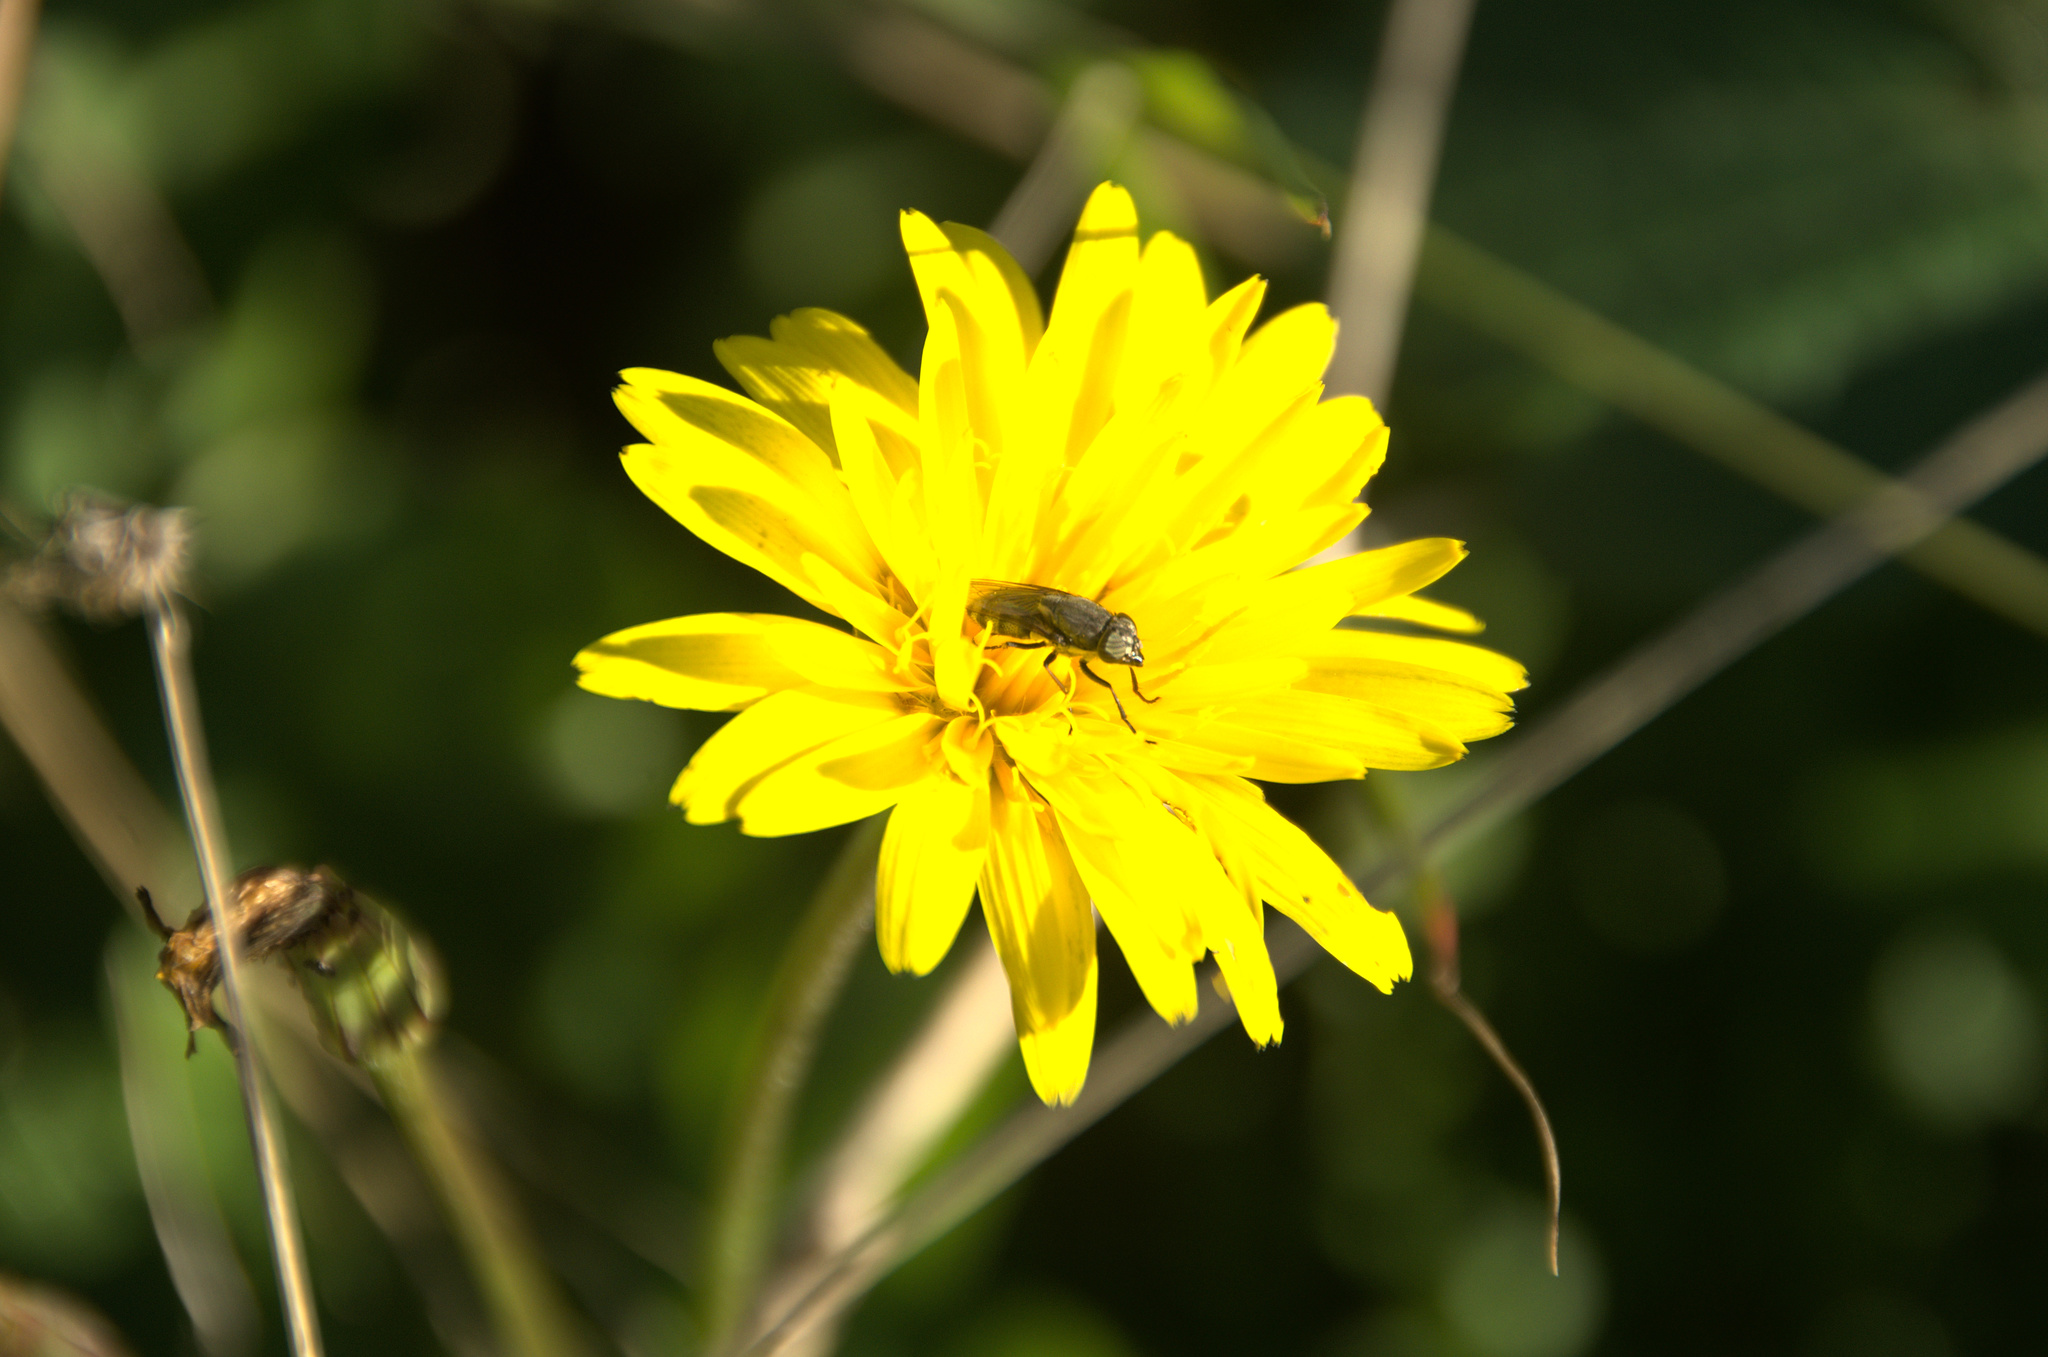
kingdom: Animalia
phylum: Arthropoda
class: Insecta
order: Diptera
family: Calliphoridae
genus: Stomorhina
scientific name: Stomorhina lunata
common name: Locust blowfly
